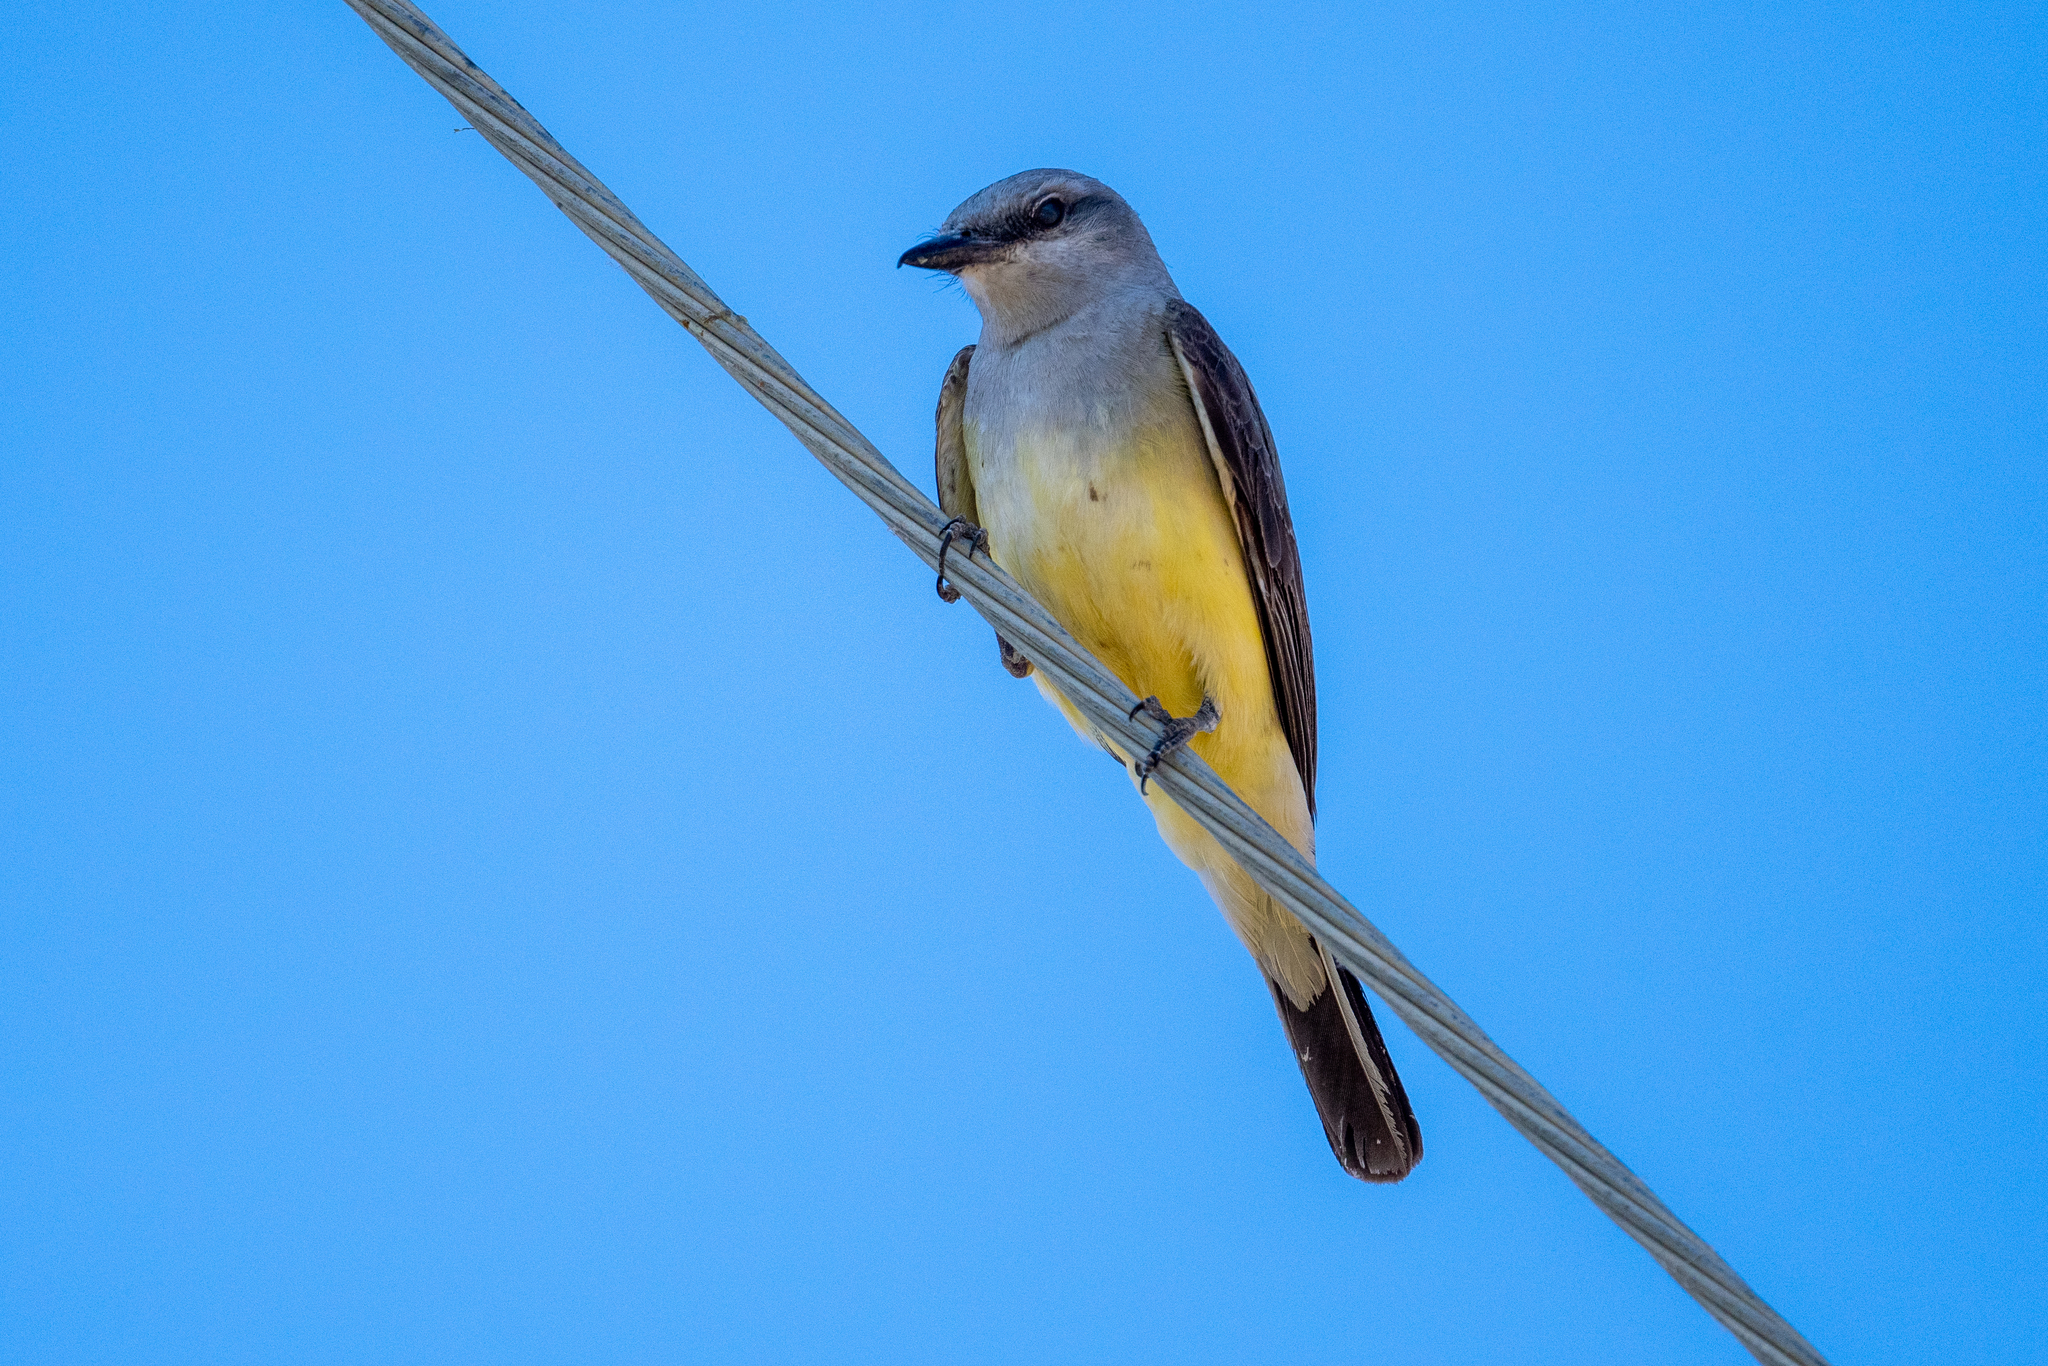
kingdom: Animalia
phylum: Chordata
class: Aves
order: Passeriformes
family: Tyrannidae
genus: Tyrannus
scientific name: Tyrannus verticalis
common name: Western kingbird
